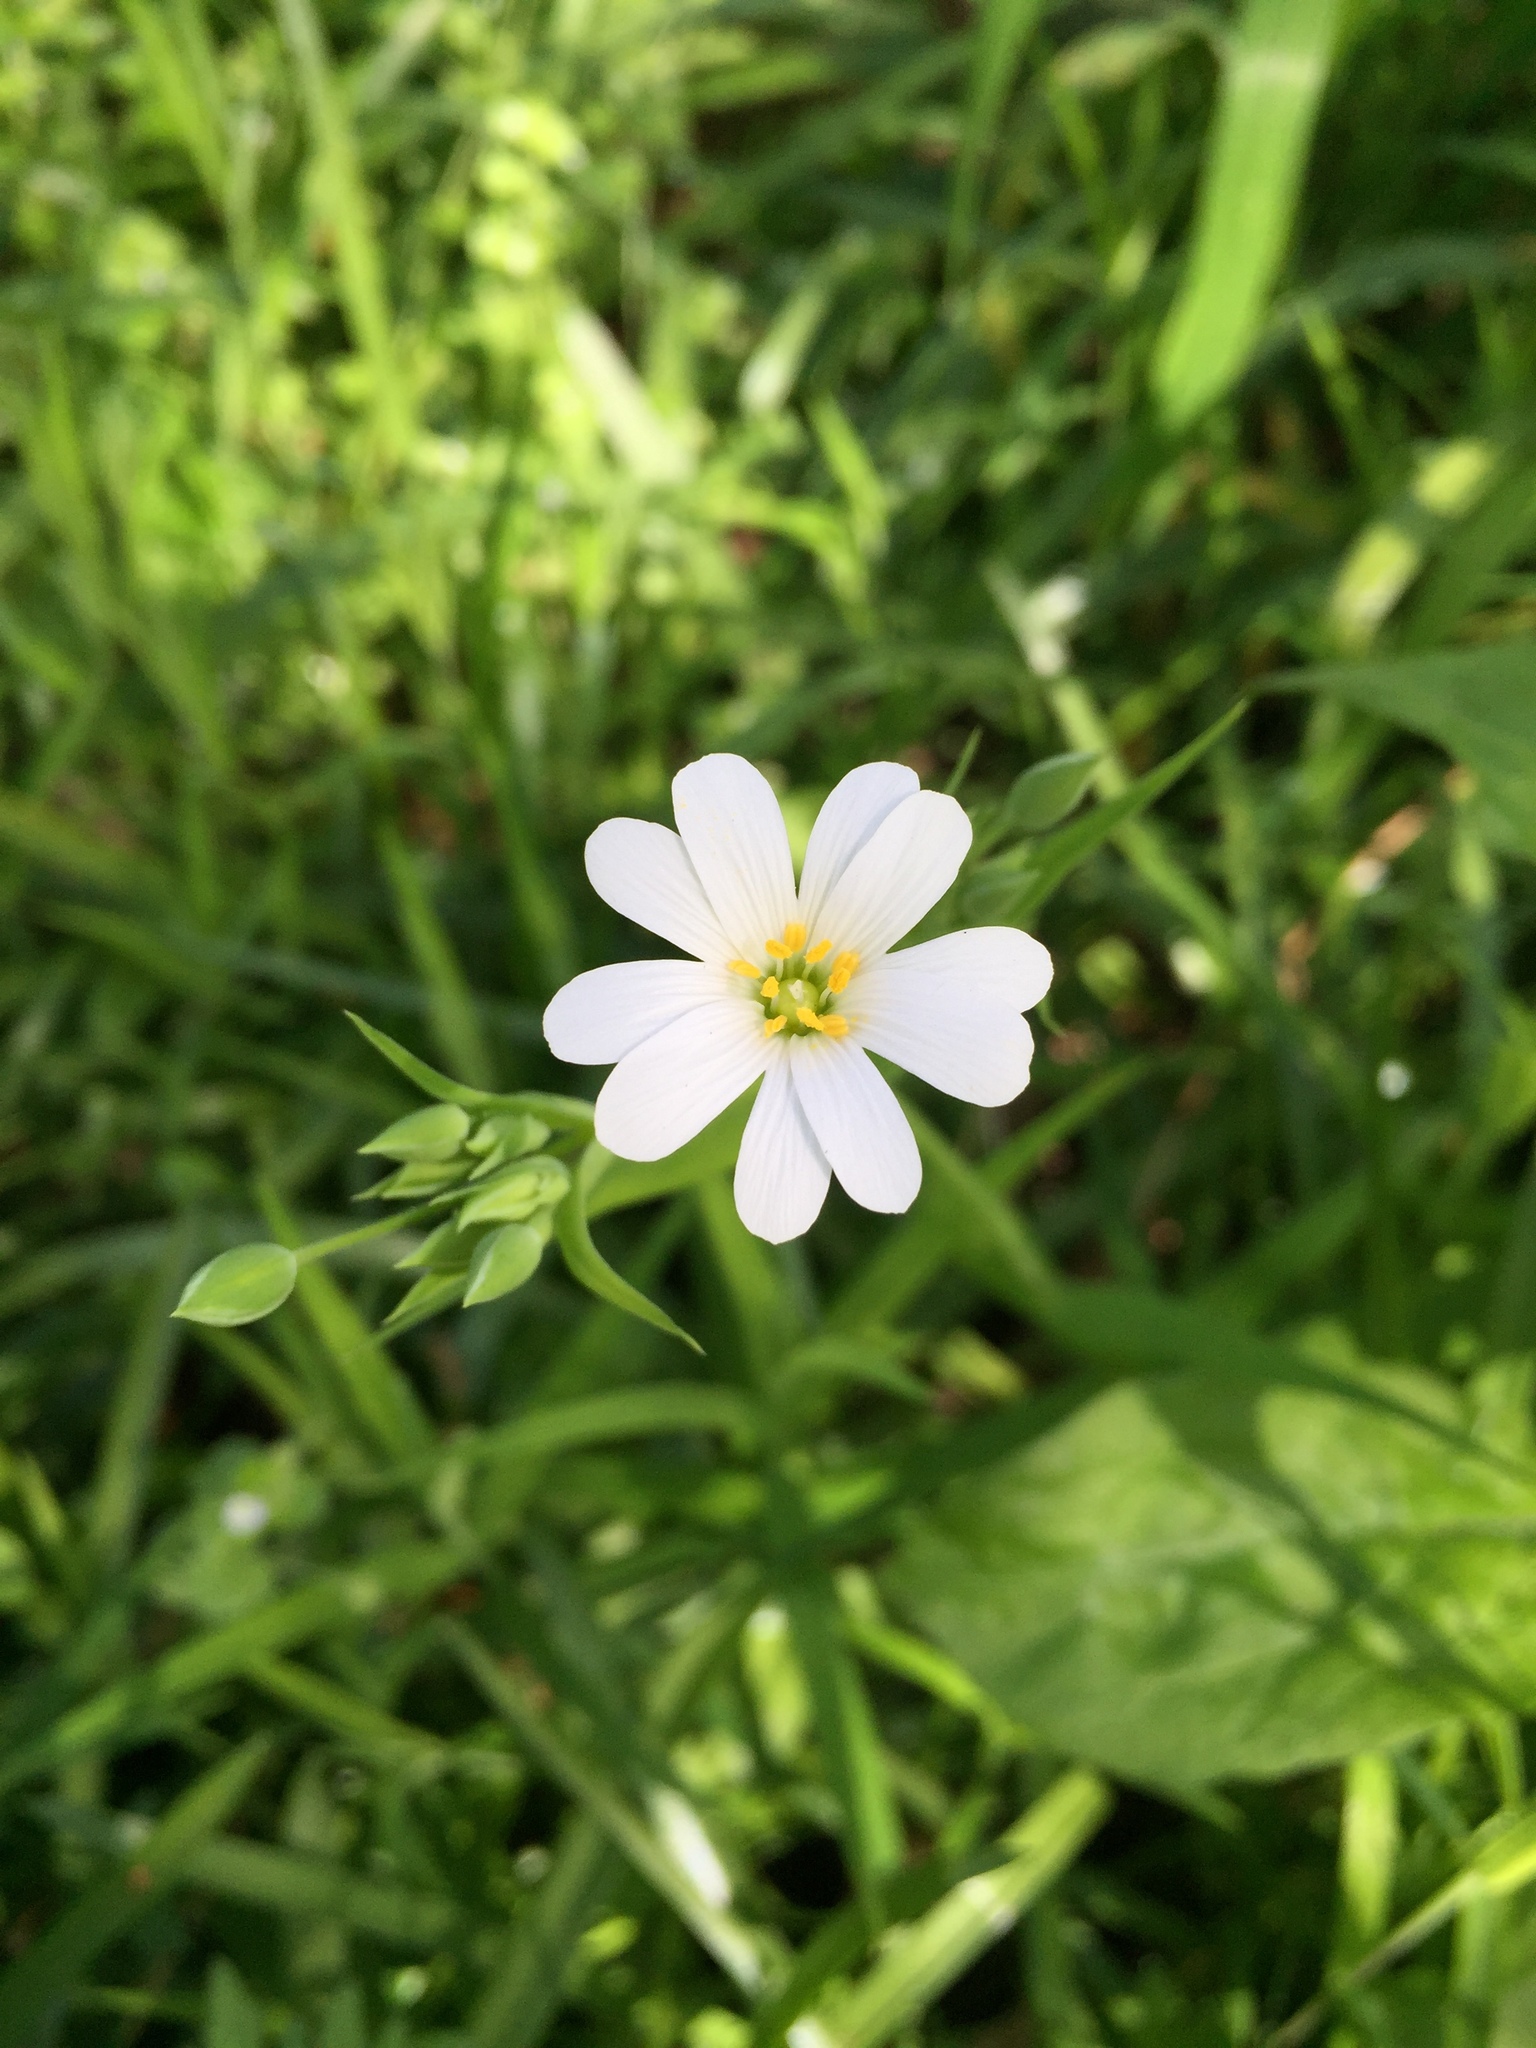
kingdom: Plantae
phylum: Tracheophyta
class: Magnoliopsida
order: Caryophyllales
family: Caryophyllaceae
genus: Rabelera
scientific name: Rabelera holostea
